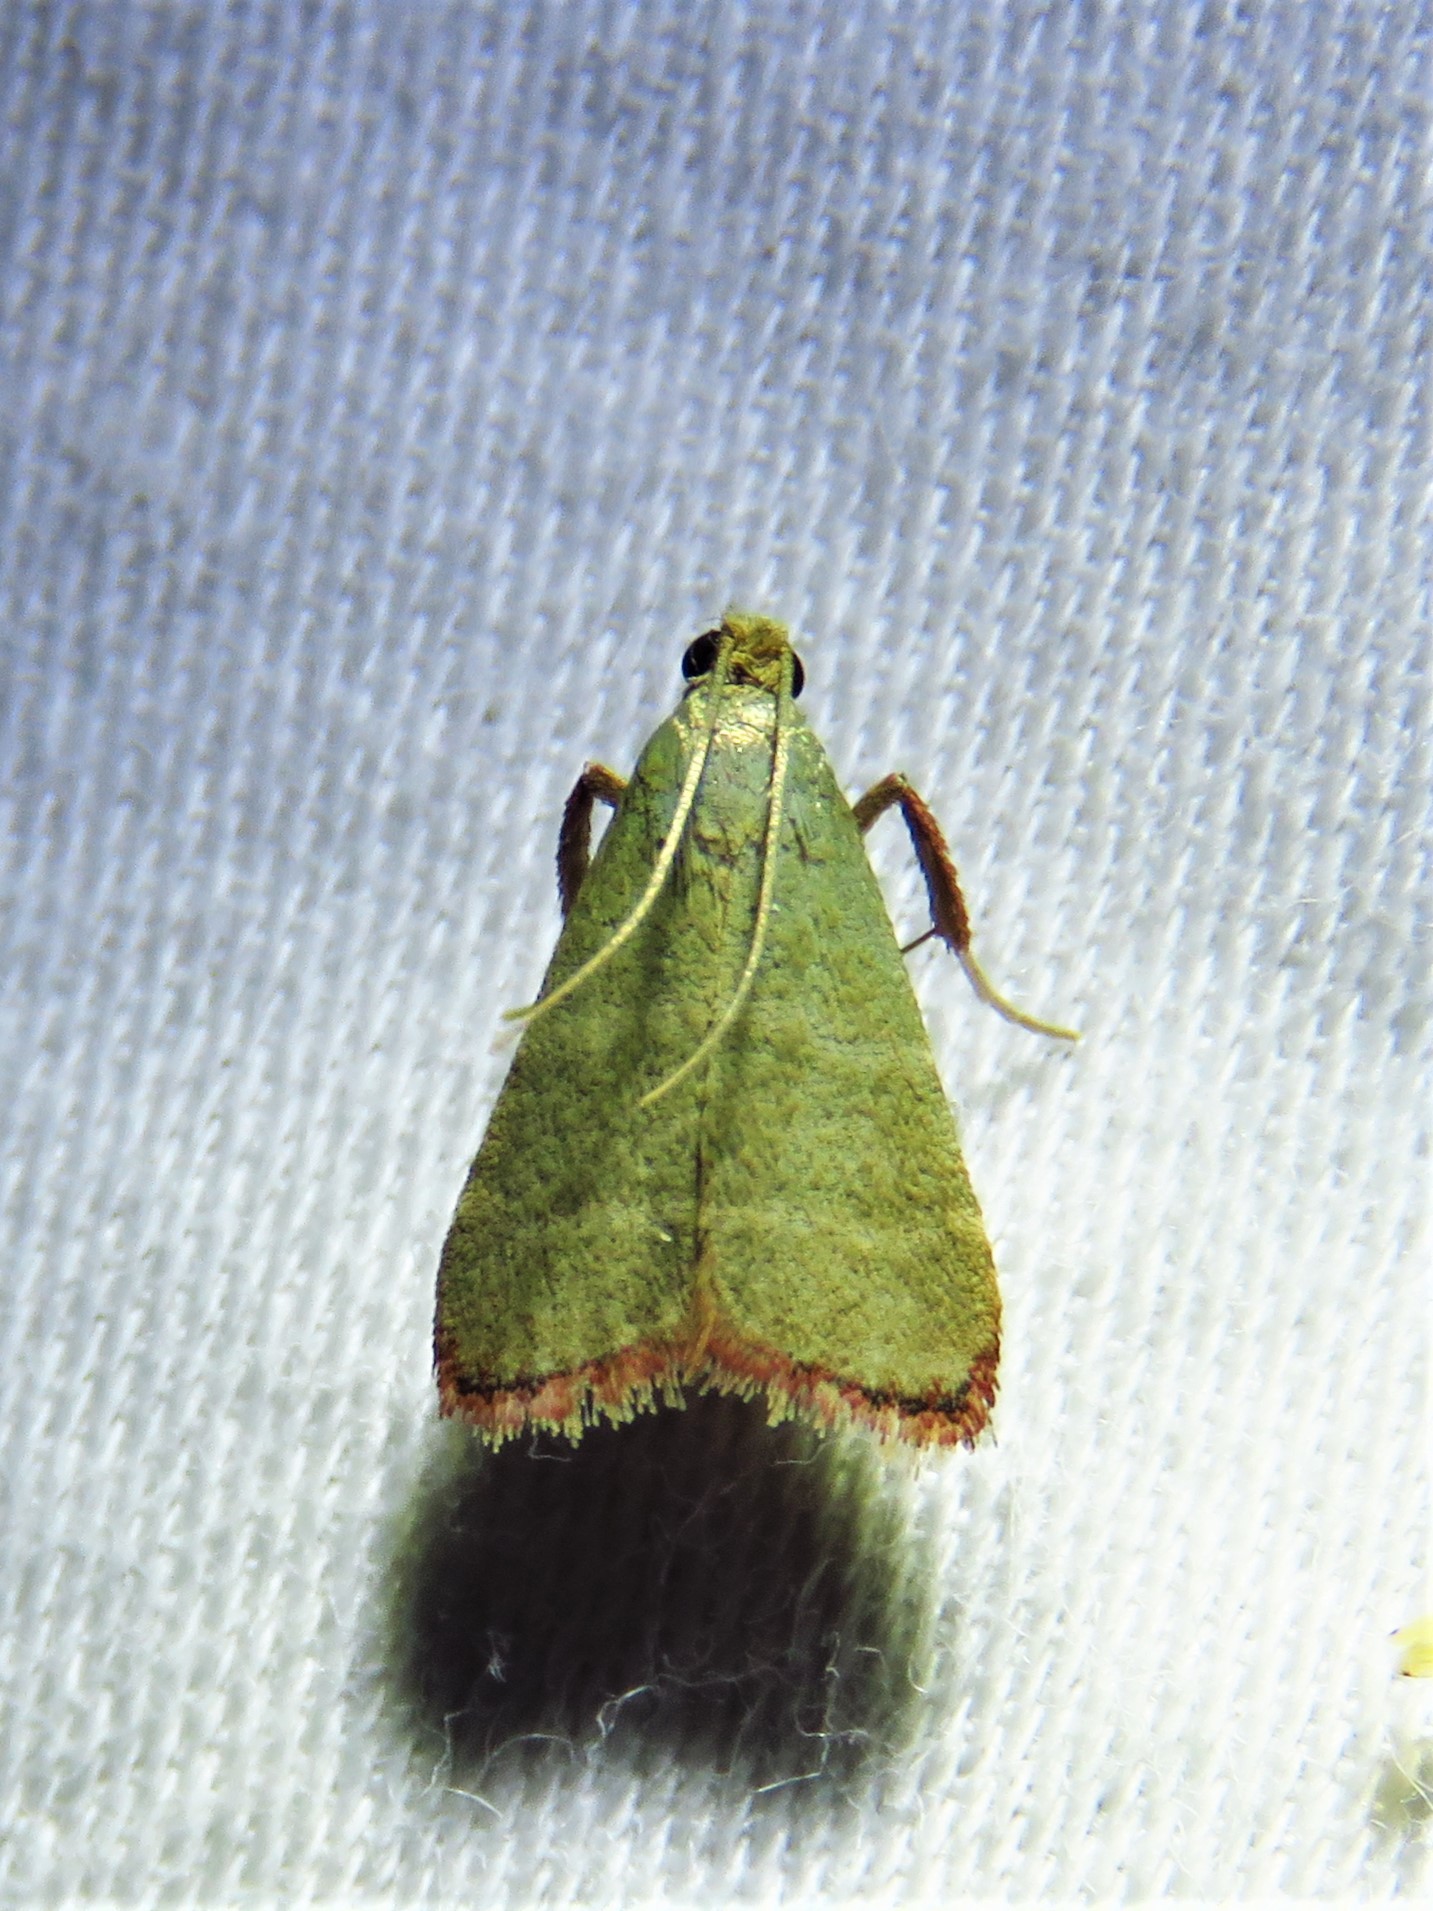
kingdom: Animalia
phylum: Arthropoda
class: Insecta
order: Lepidoptera
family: Pyralidae
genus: Arta
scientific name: Arta olivalis
